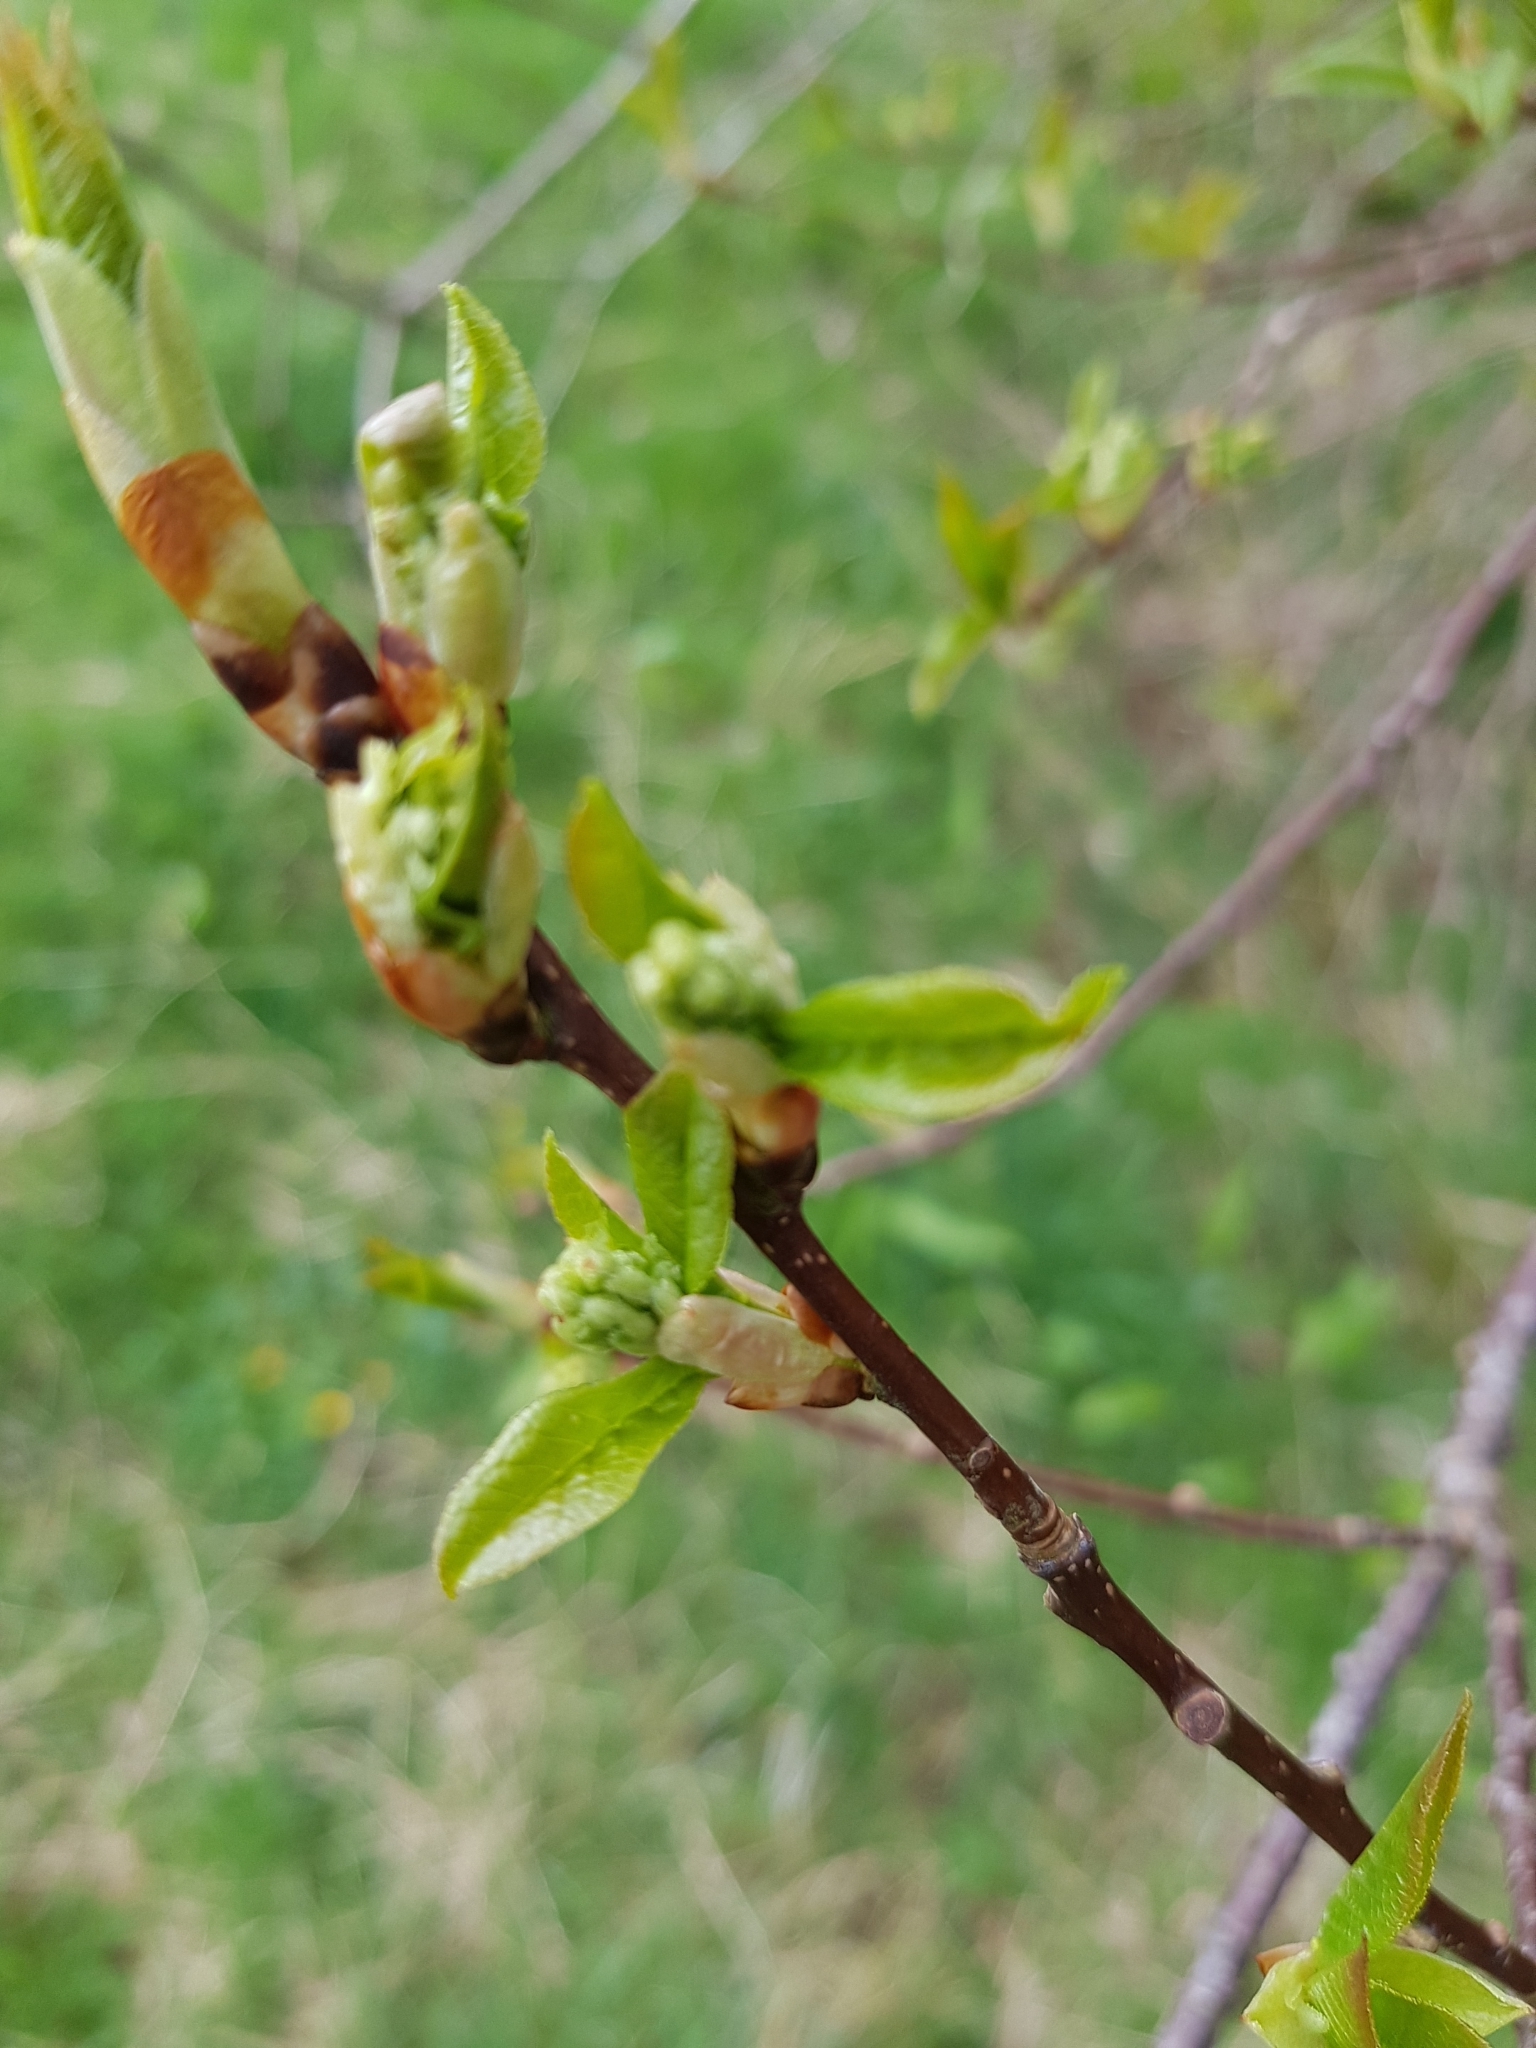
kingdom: Plantae
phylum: Tracheophyta
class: Magnoliopsida
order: Rosales
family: Rosaceae
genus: Prunus
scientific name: Prunus padus
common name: Bird cherry
